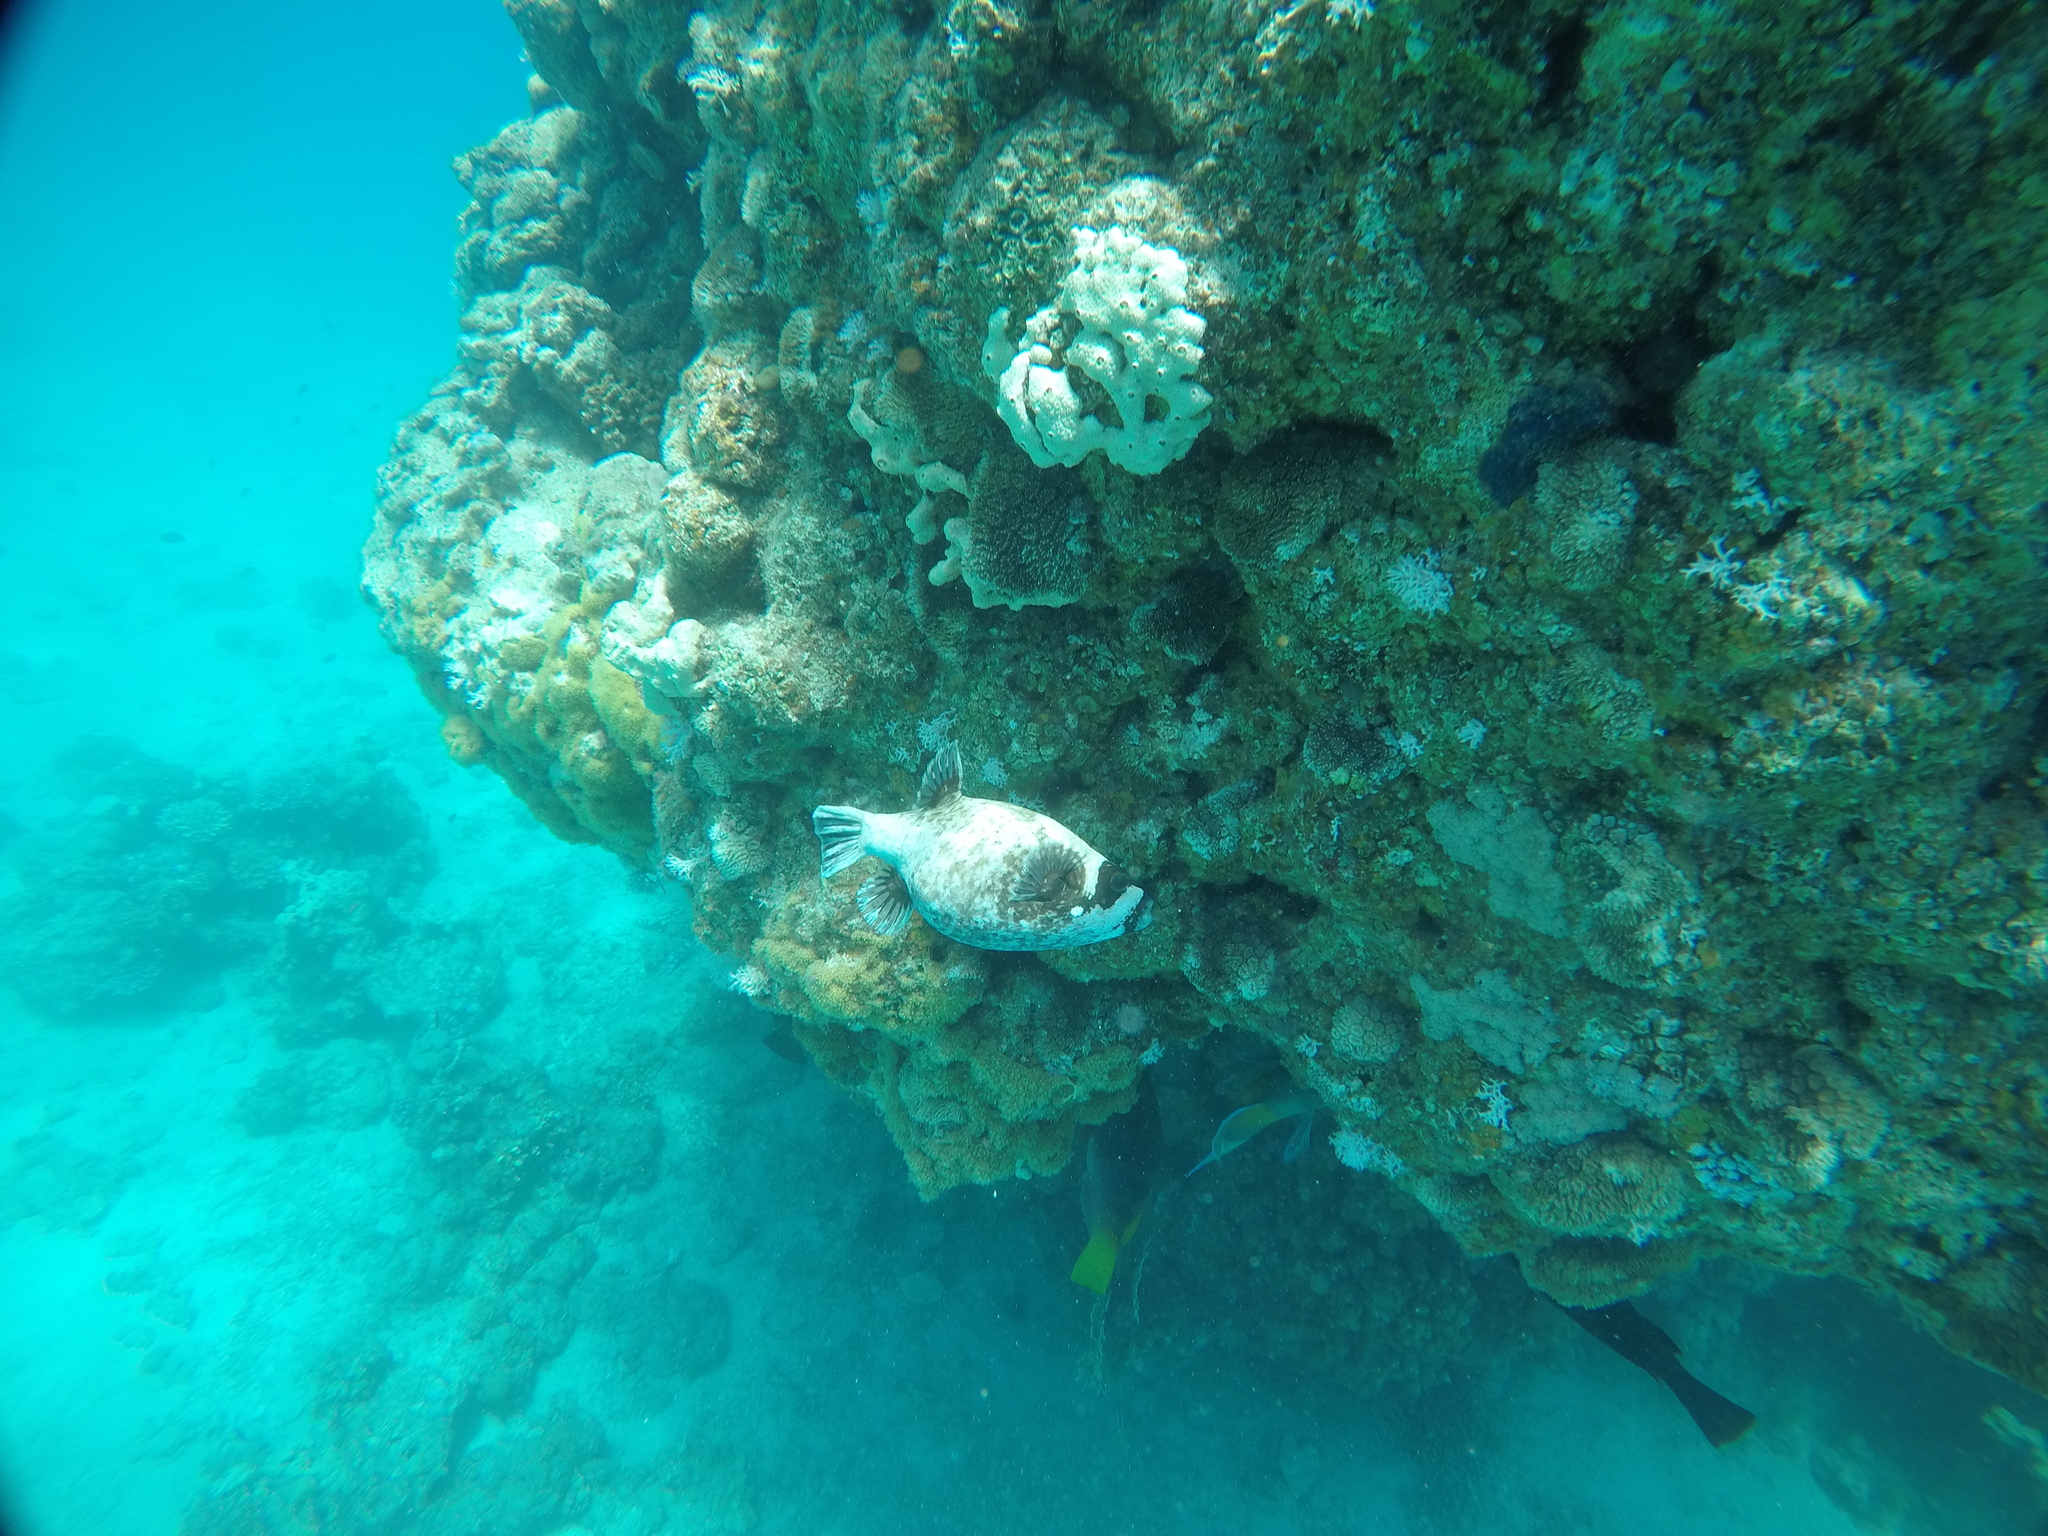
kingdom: Animalia
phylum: Chordata
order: Tetraodontiformes
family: Tetraodontidae
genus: Arothron
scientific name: Arothron diadematus
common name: Masked puffer
